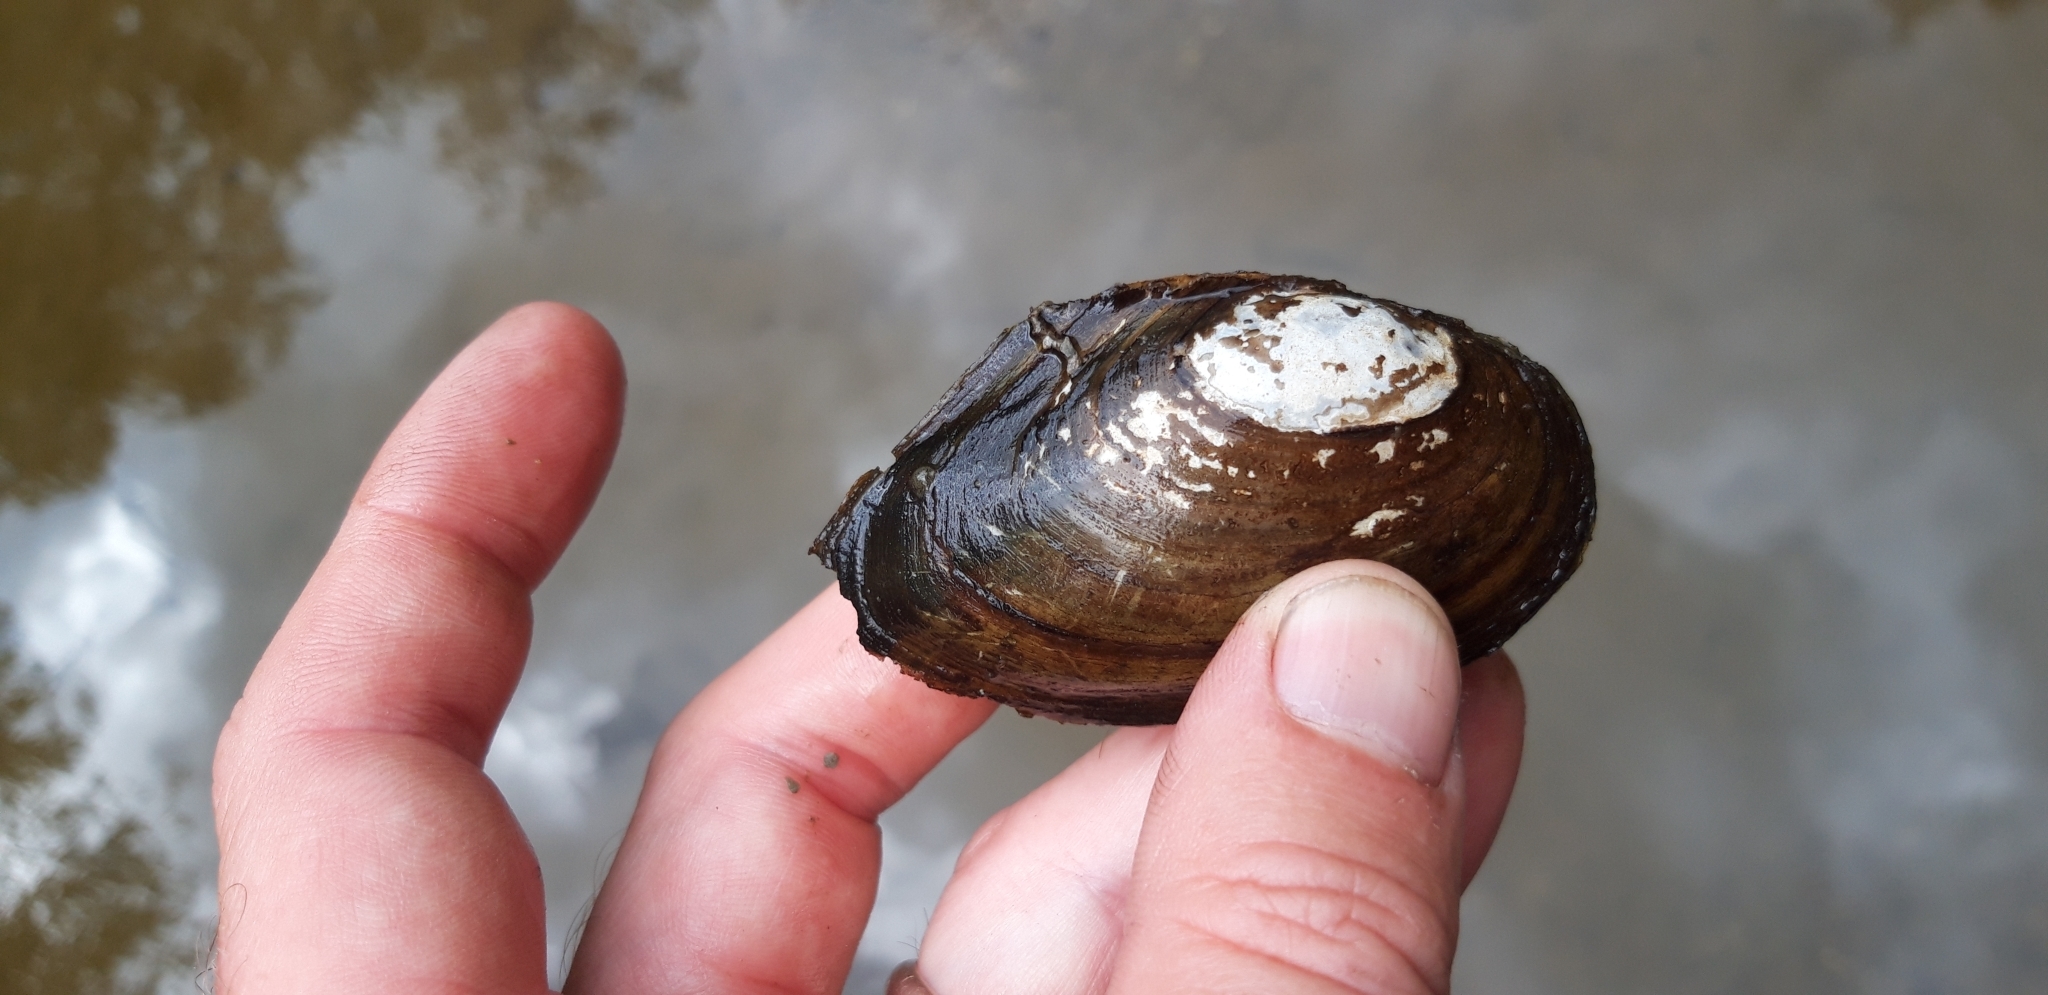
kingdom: Animalia
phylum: Mollusca
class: Bivalvia
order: Unionida
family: Unionidae
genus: Anodonta
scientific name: Anodonta anatina
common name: Duck mussel
